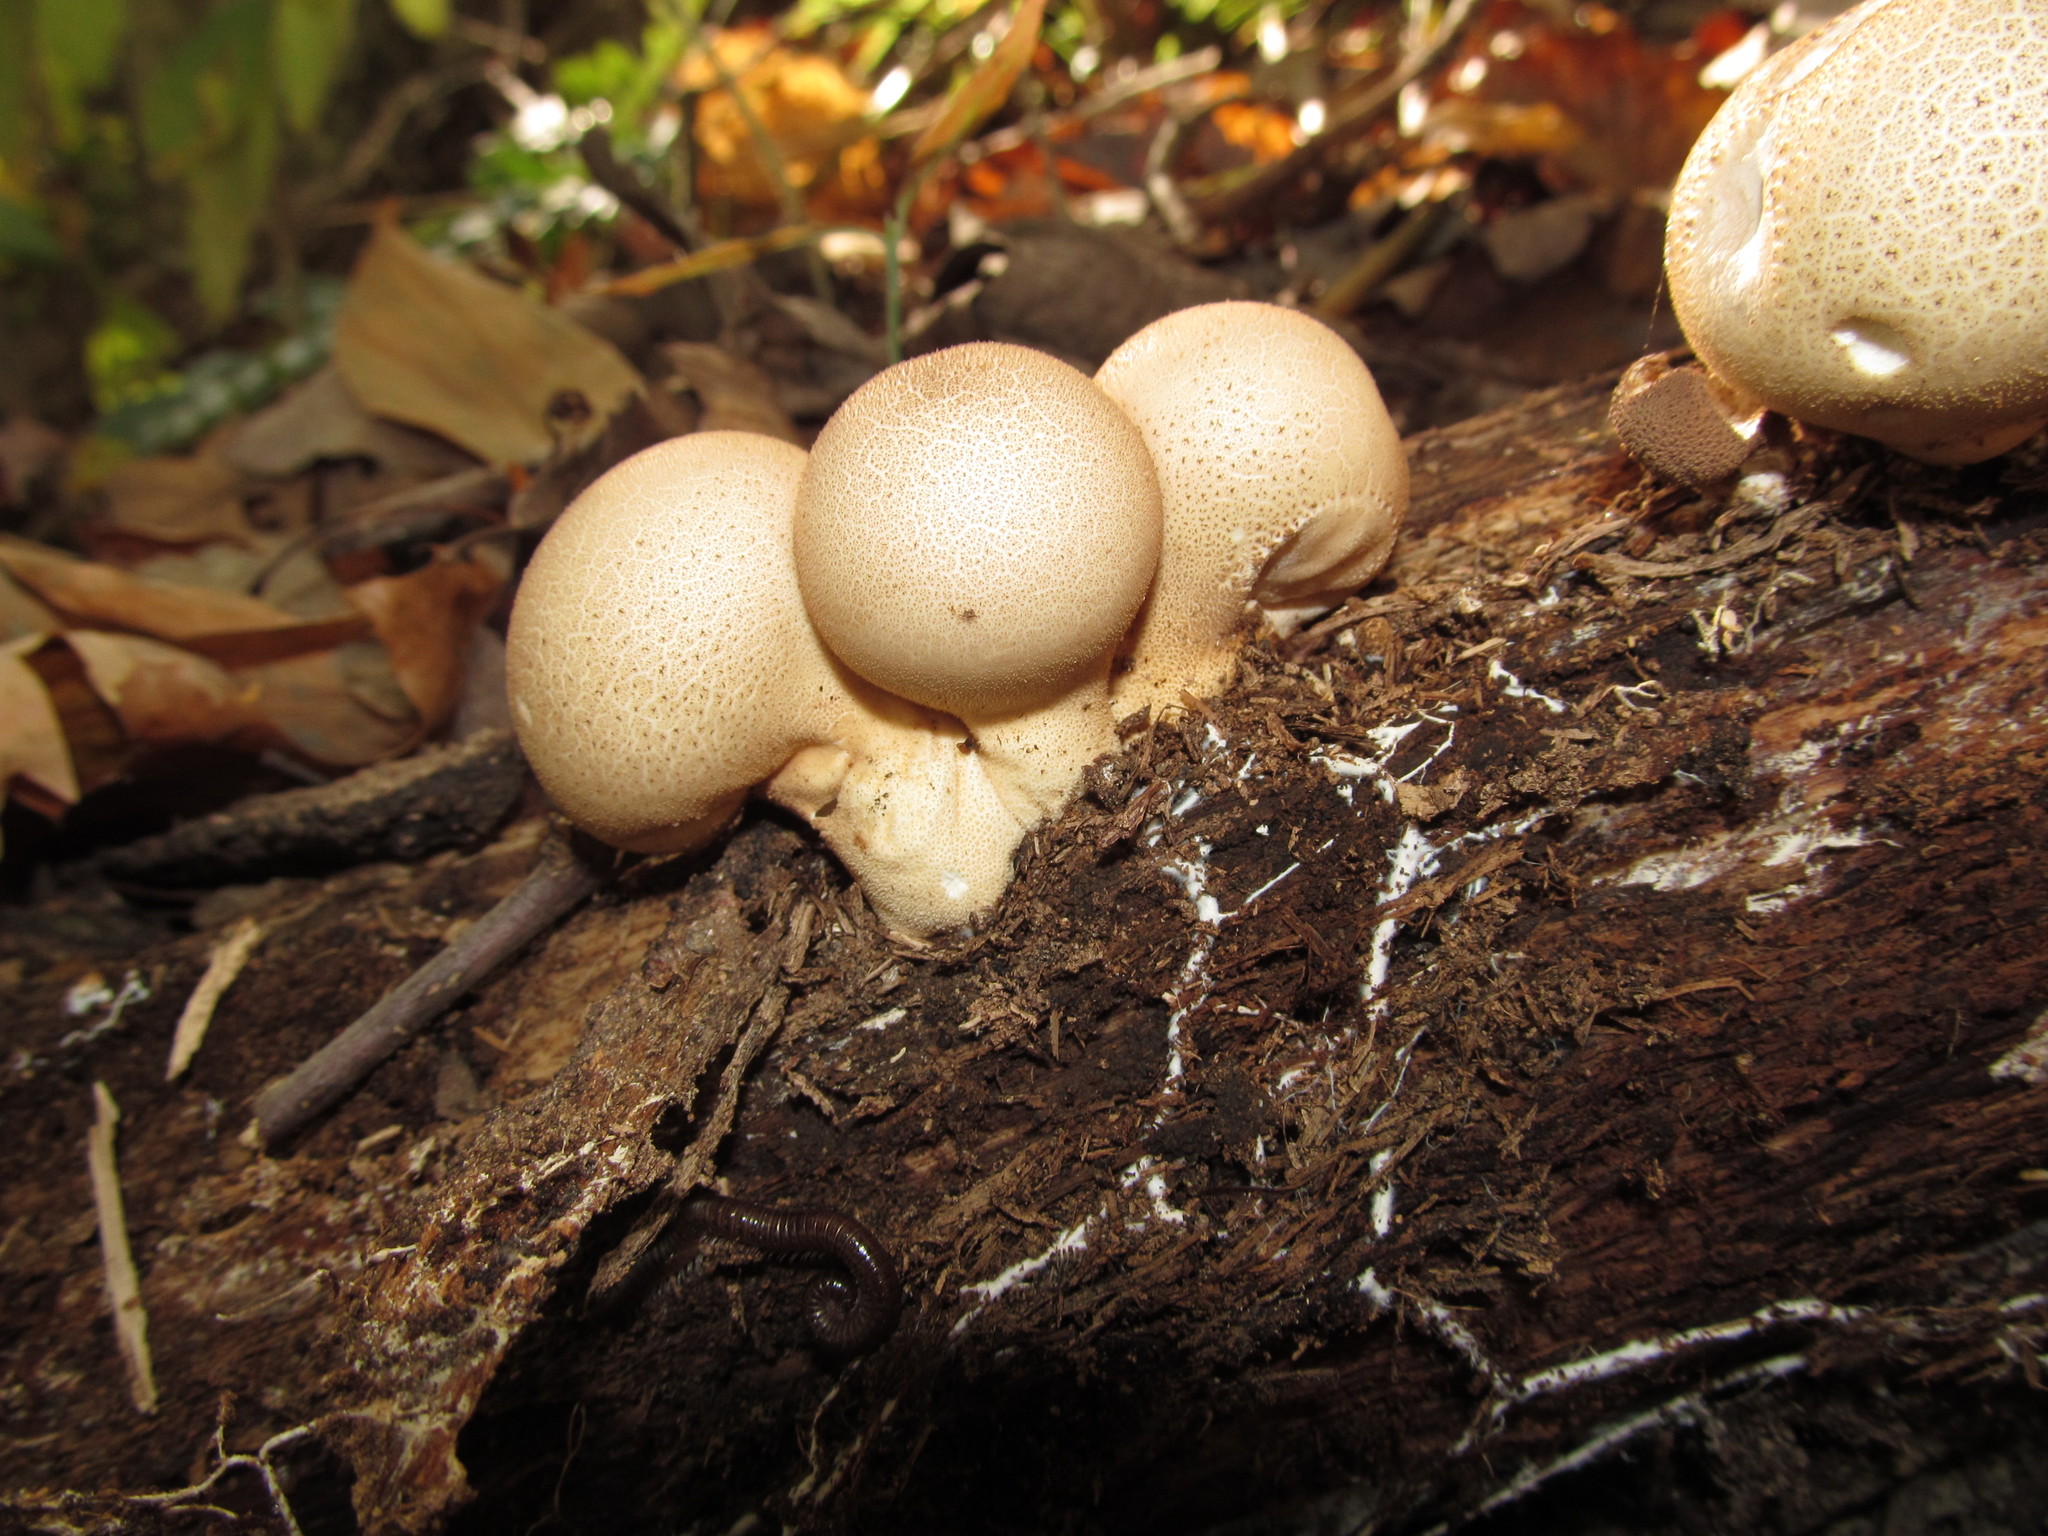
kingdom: Fungi
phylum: Basidiomycota
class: Agaricomycetes
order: Agaricales
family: Lycoperdaceae
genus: Apioperdon
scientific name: Apioperdon pyriforme
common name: Pear-shaped puffball
